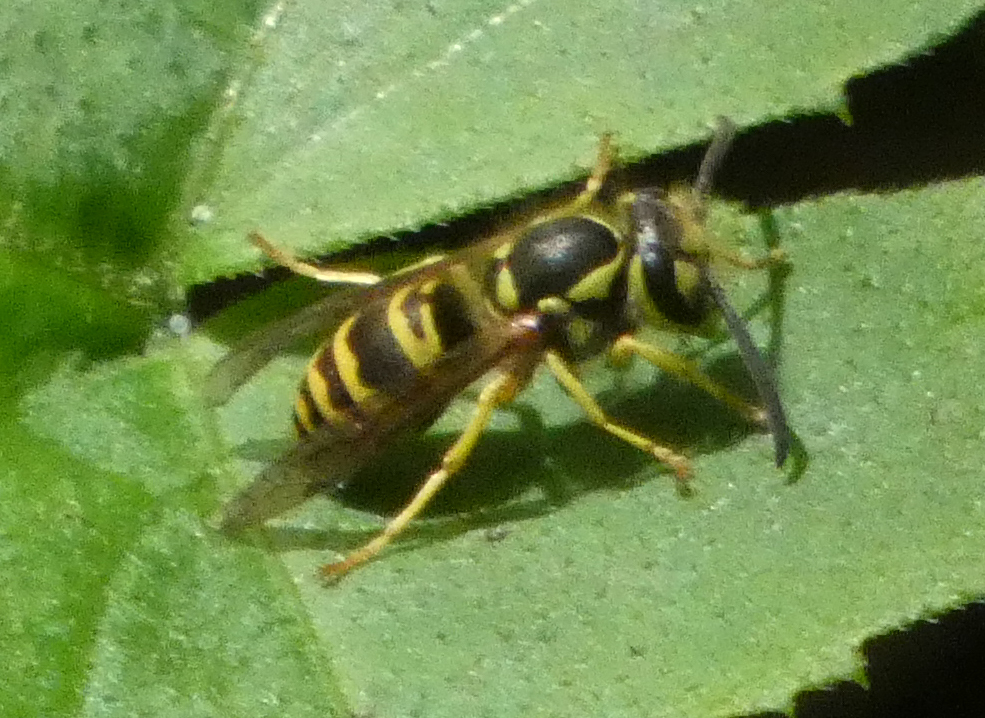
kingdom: Animalia
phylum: Arthropoda
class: Insecta
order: Hymenoptera
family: Vespidae
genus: Vespula
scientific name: Vespula maculifrons
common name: Eastern yellowjacket
